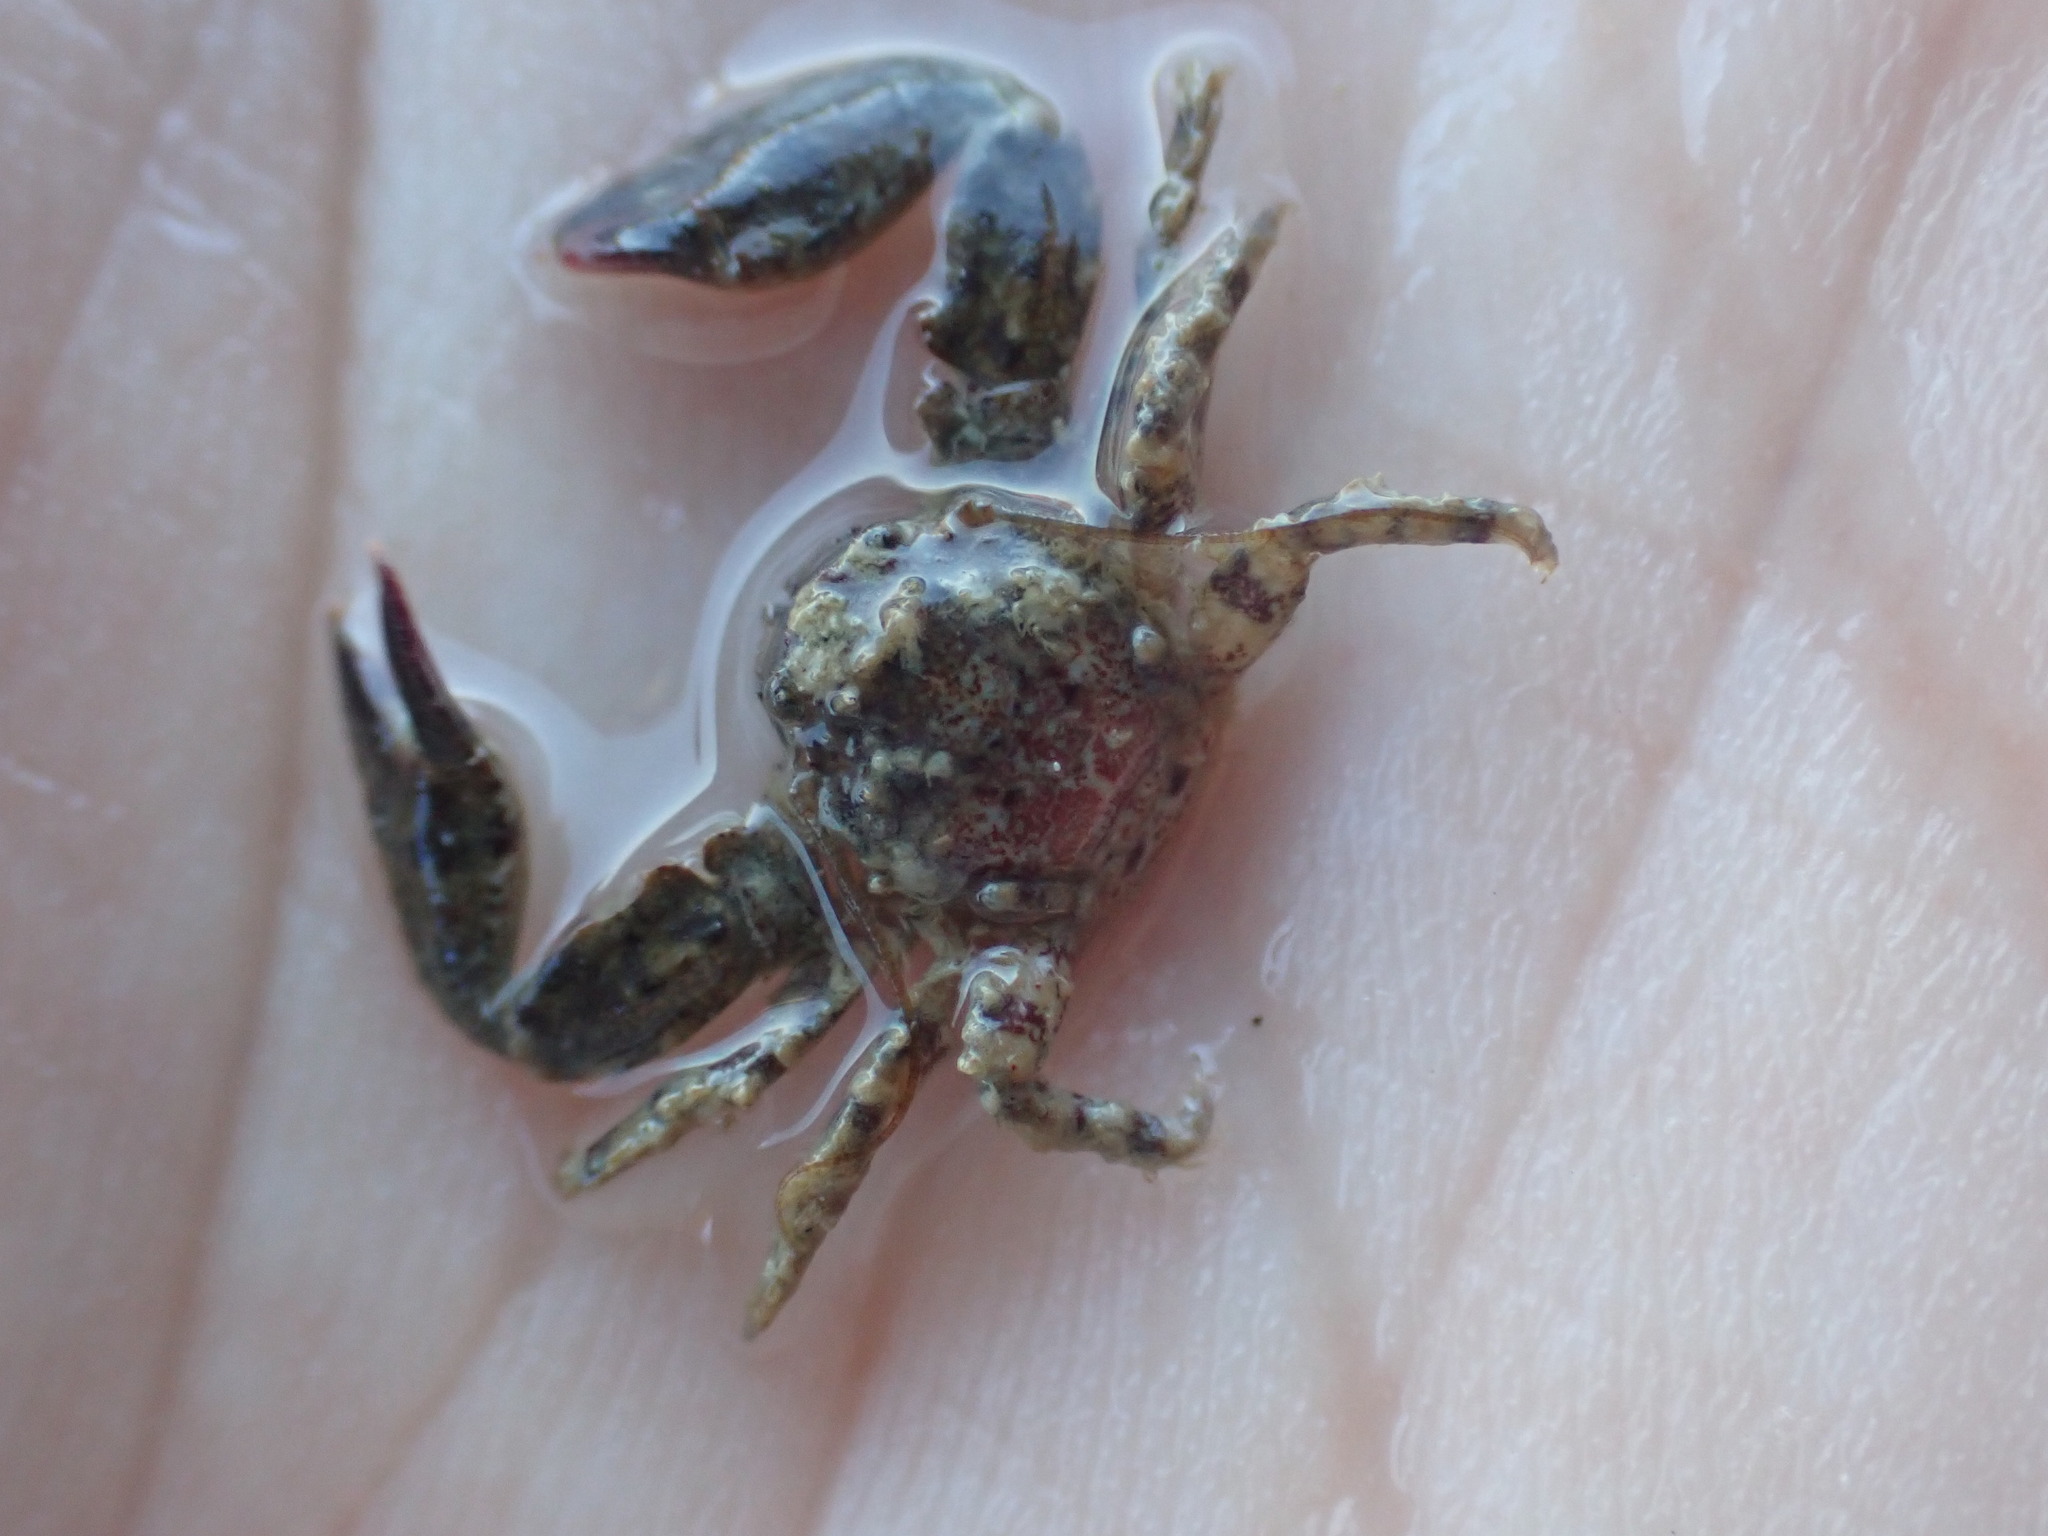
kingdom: Animalia
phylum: Arthropoda
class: Malacostraca
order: Decapoda
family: Porcellanidae
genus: Petrolisthes
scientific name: Petrolisthes novaezelandiae
